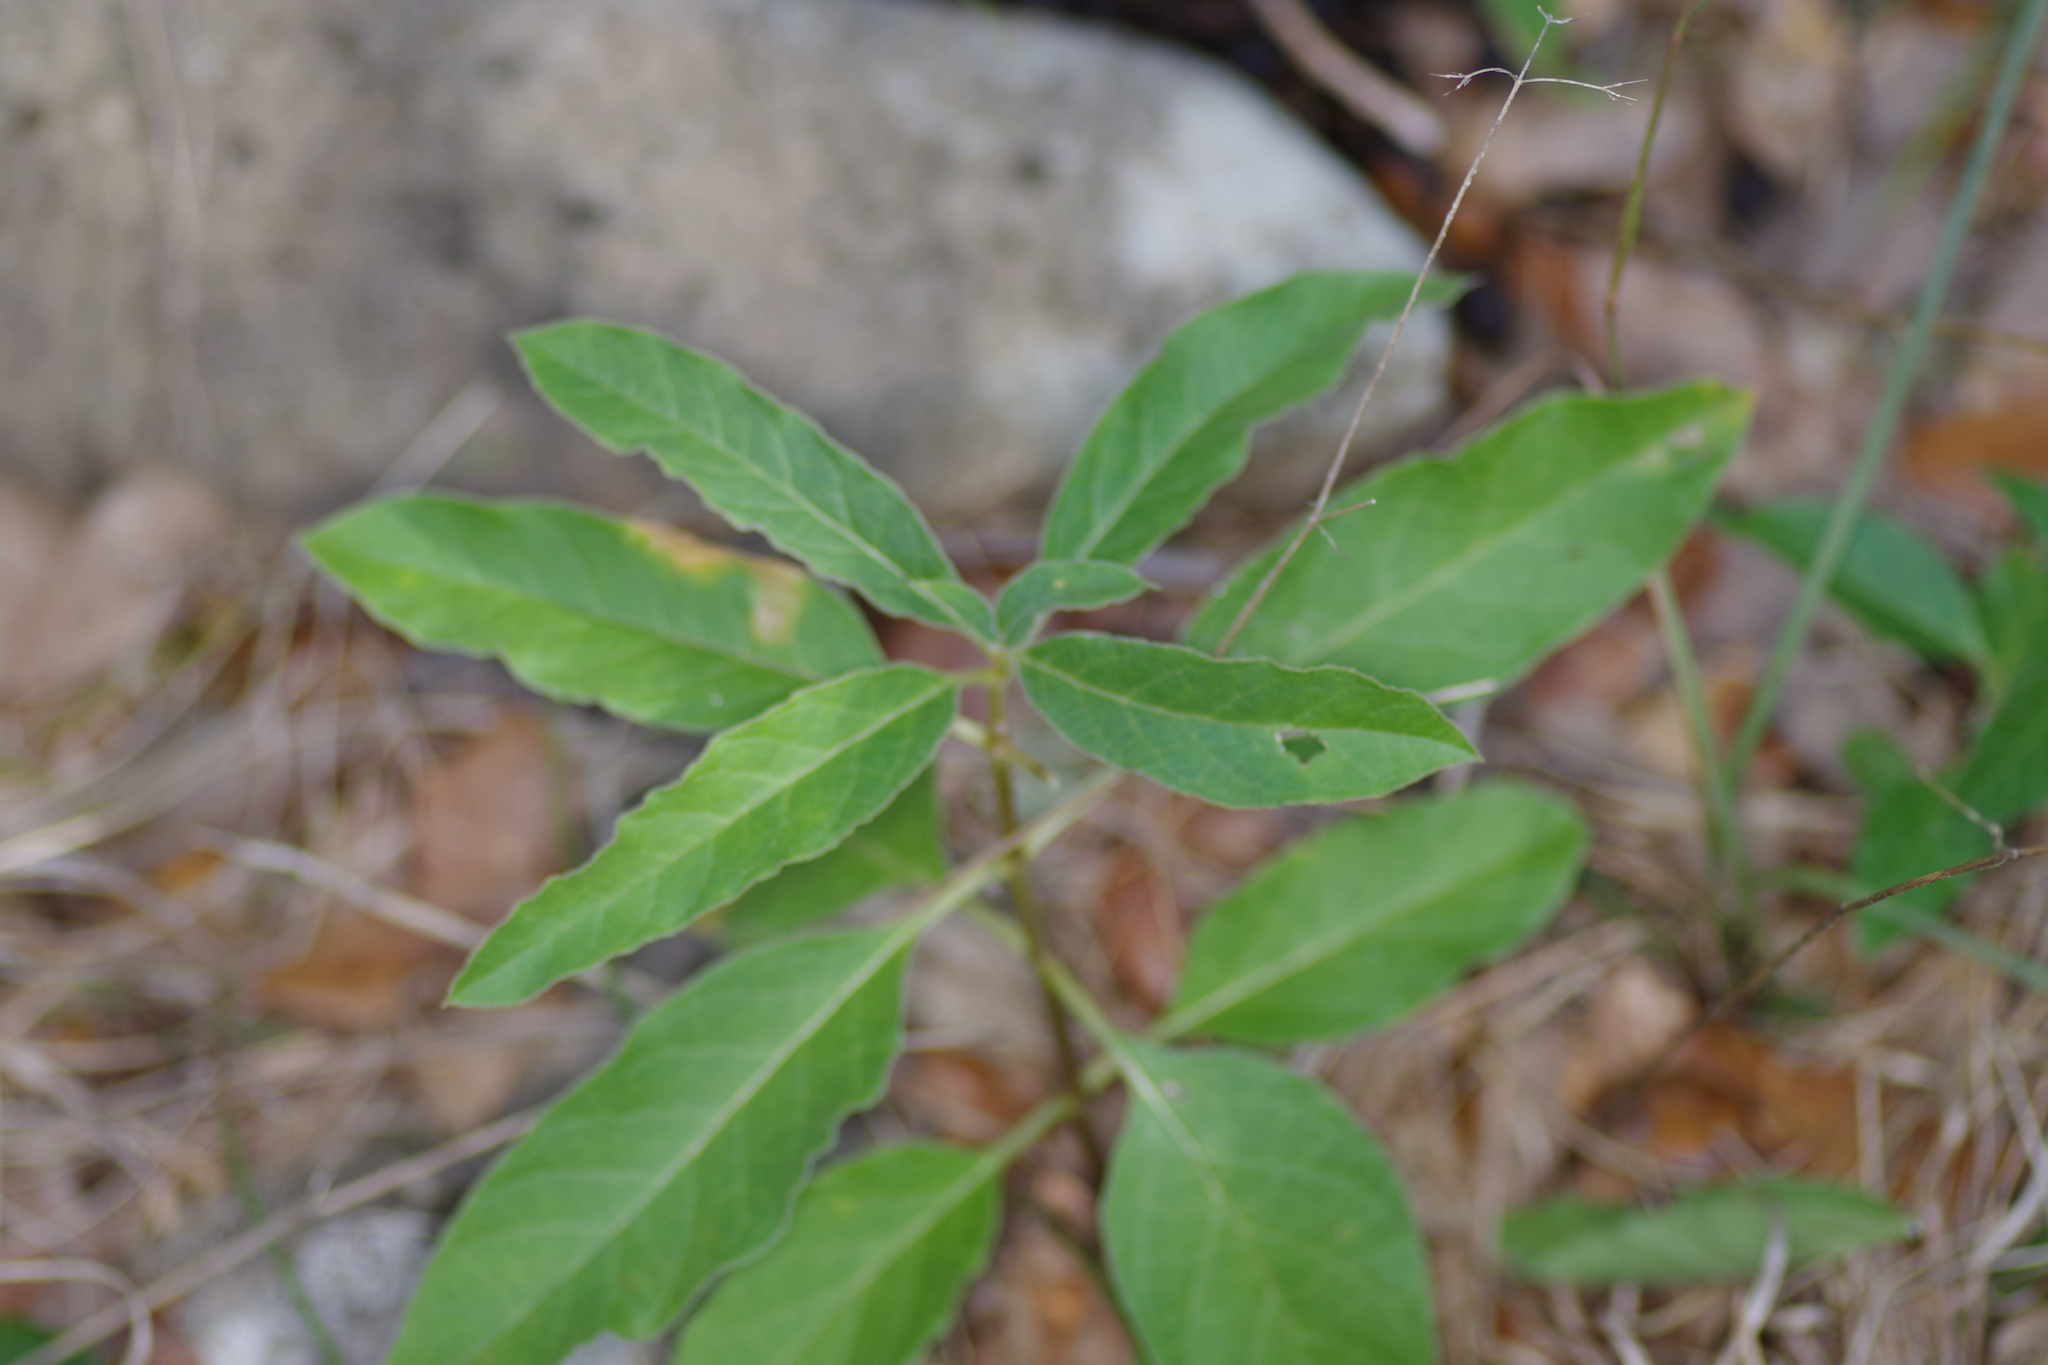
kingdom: Plantae
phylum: Tracheophyta
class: Magnoliopsida
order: Gentianales
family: Apocynaceae
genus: Asclepias
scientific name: Asclepias oenotheroides
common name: Zizotes milkweed
